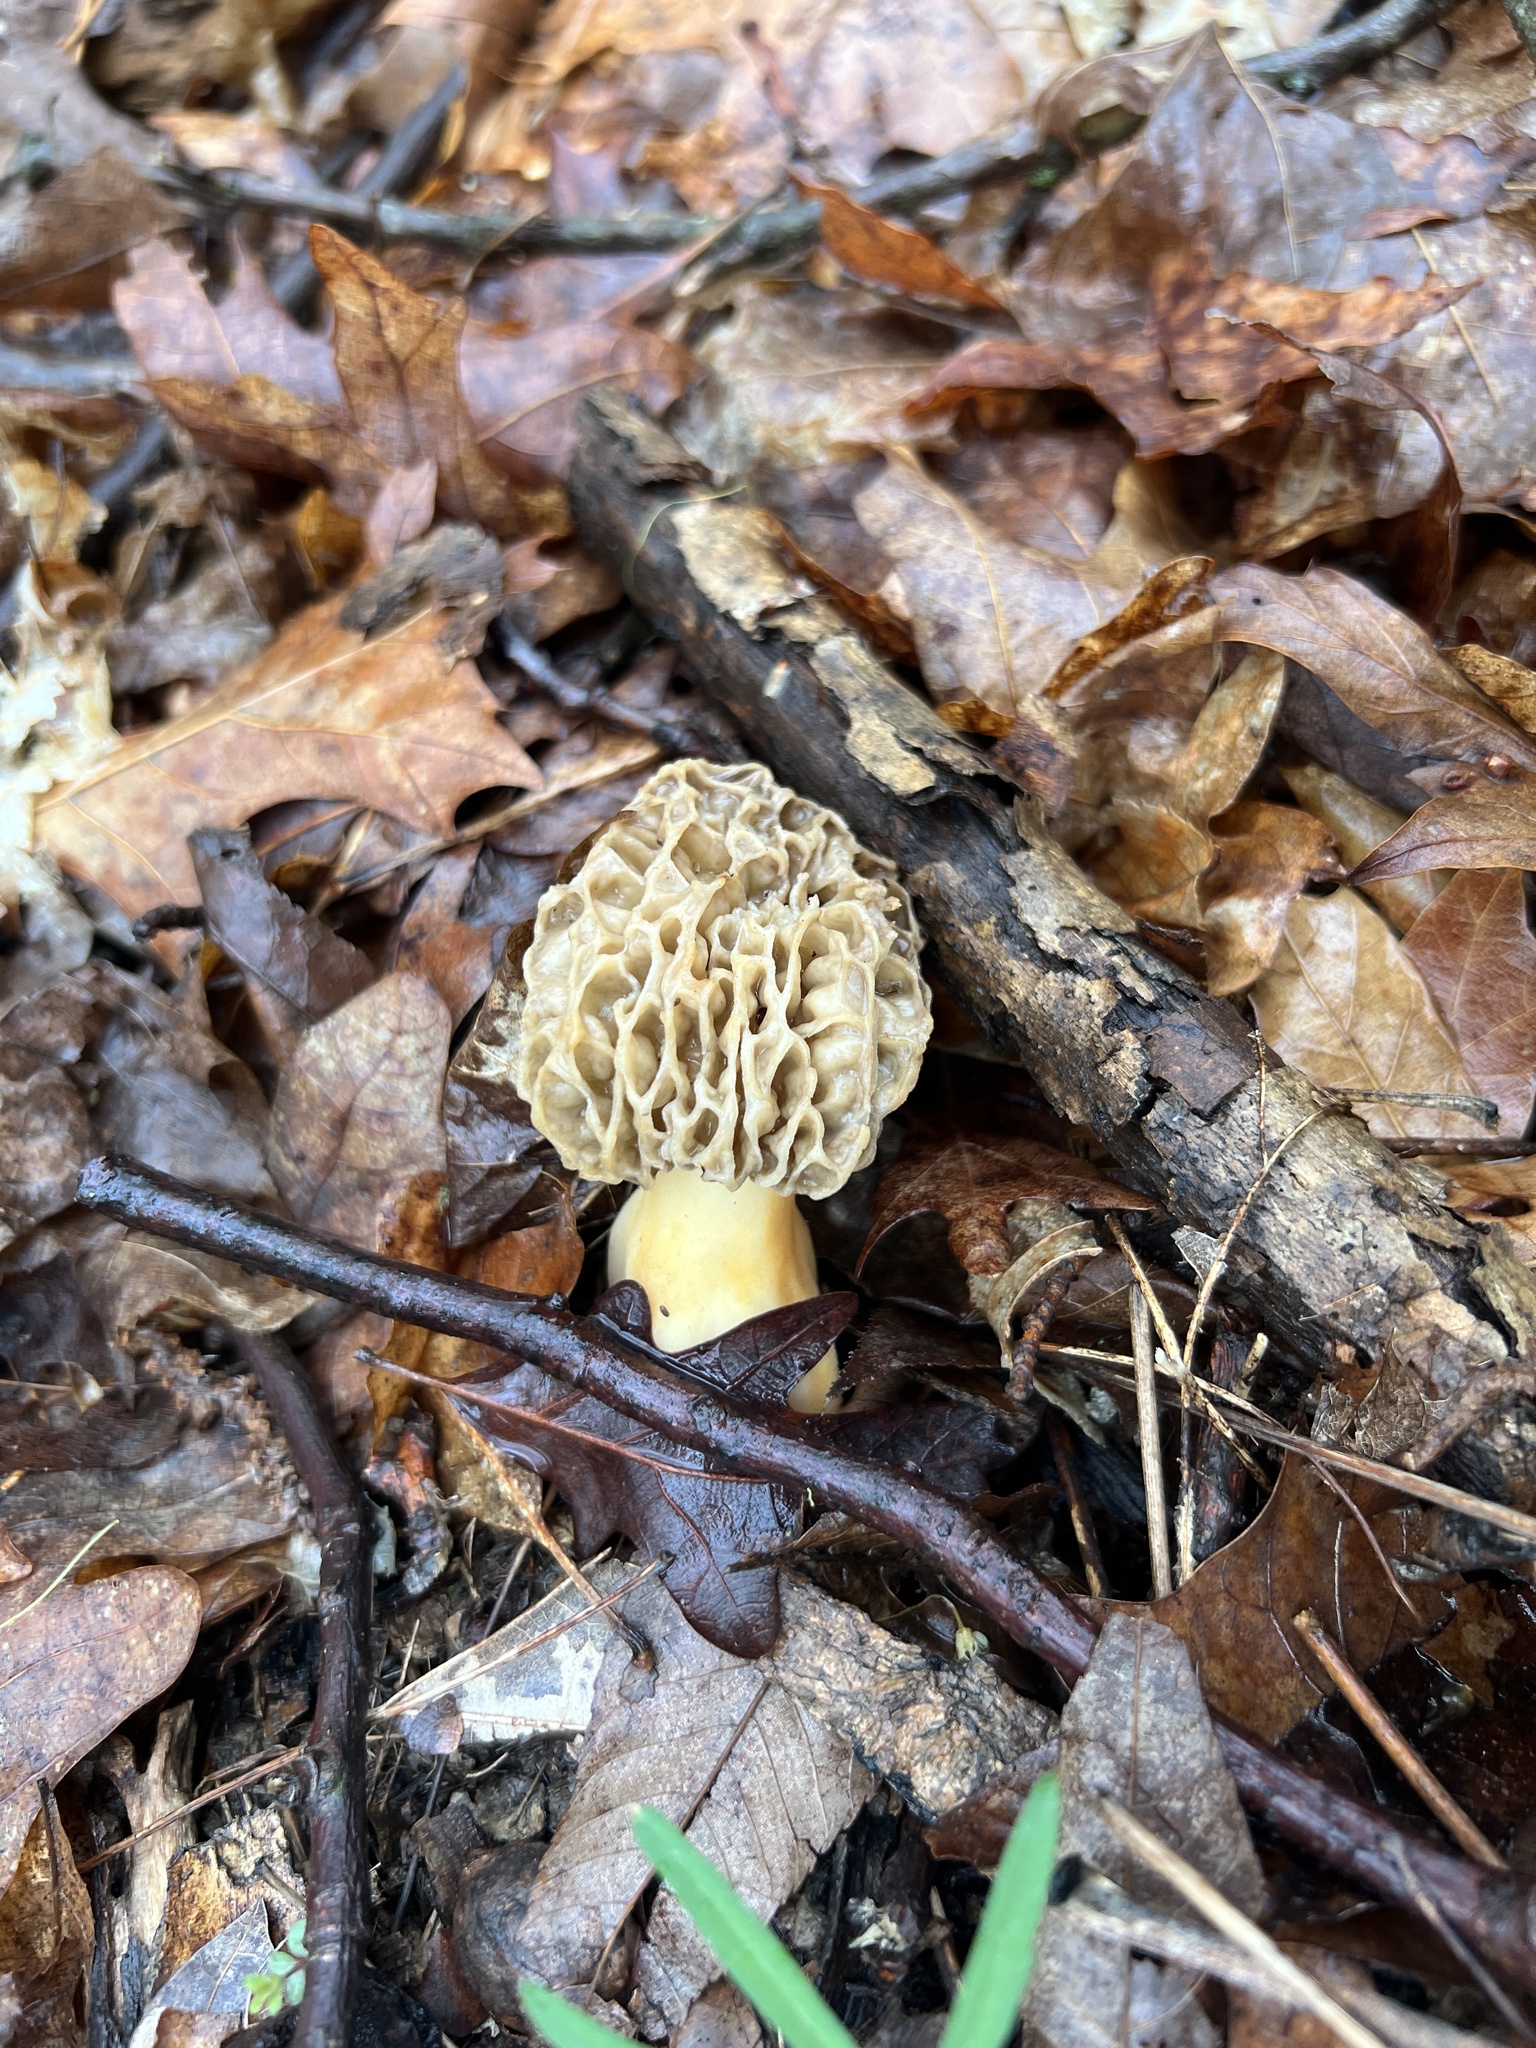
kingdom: Fungi
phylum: Ascomycota
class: Pezizomycetes
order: Pezizales
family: Morchellaceae
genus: Morchella
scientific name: Morchella americana
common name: White morel
